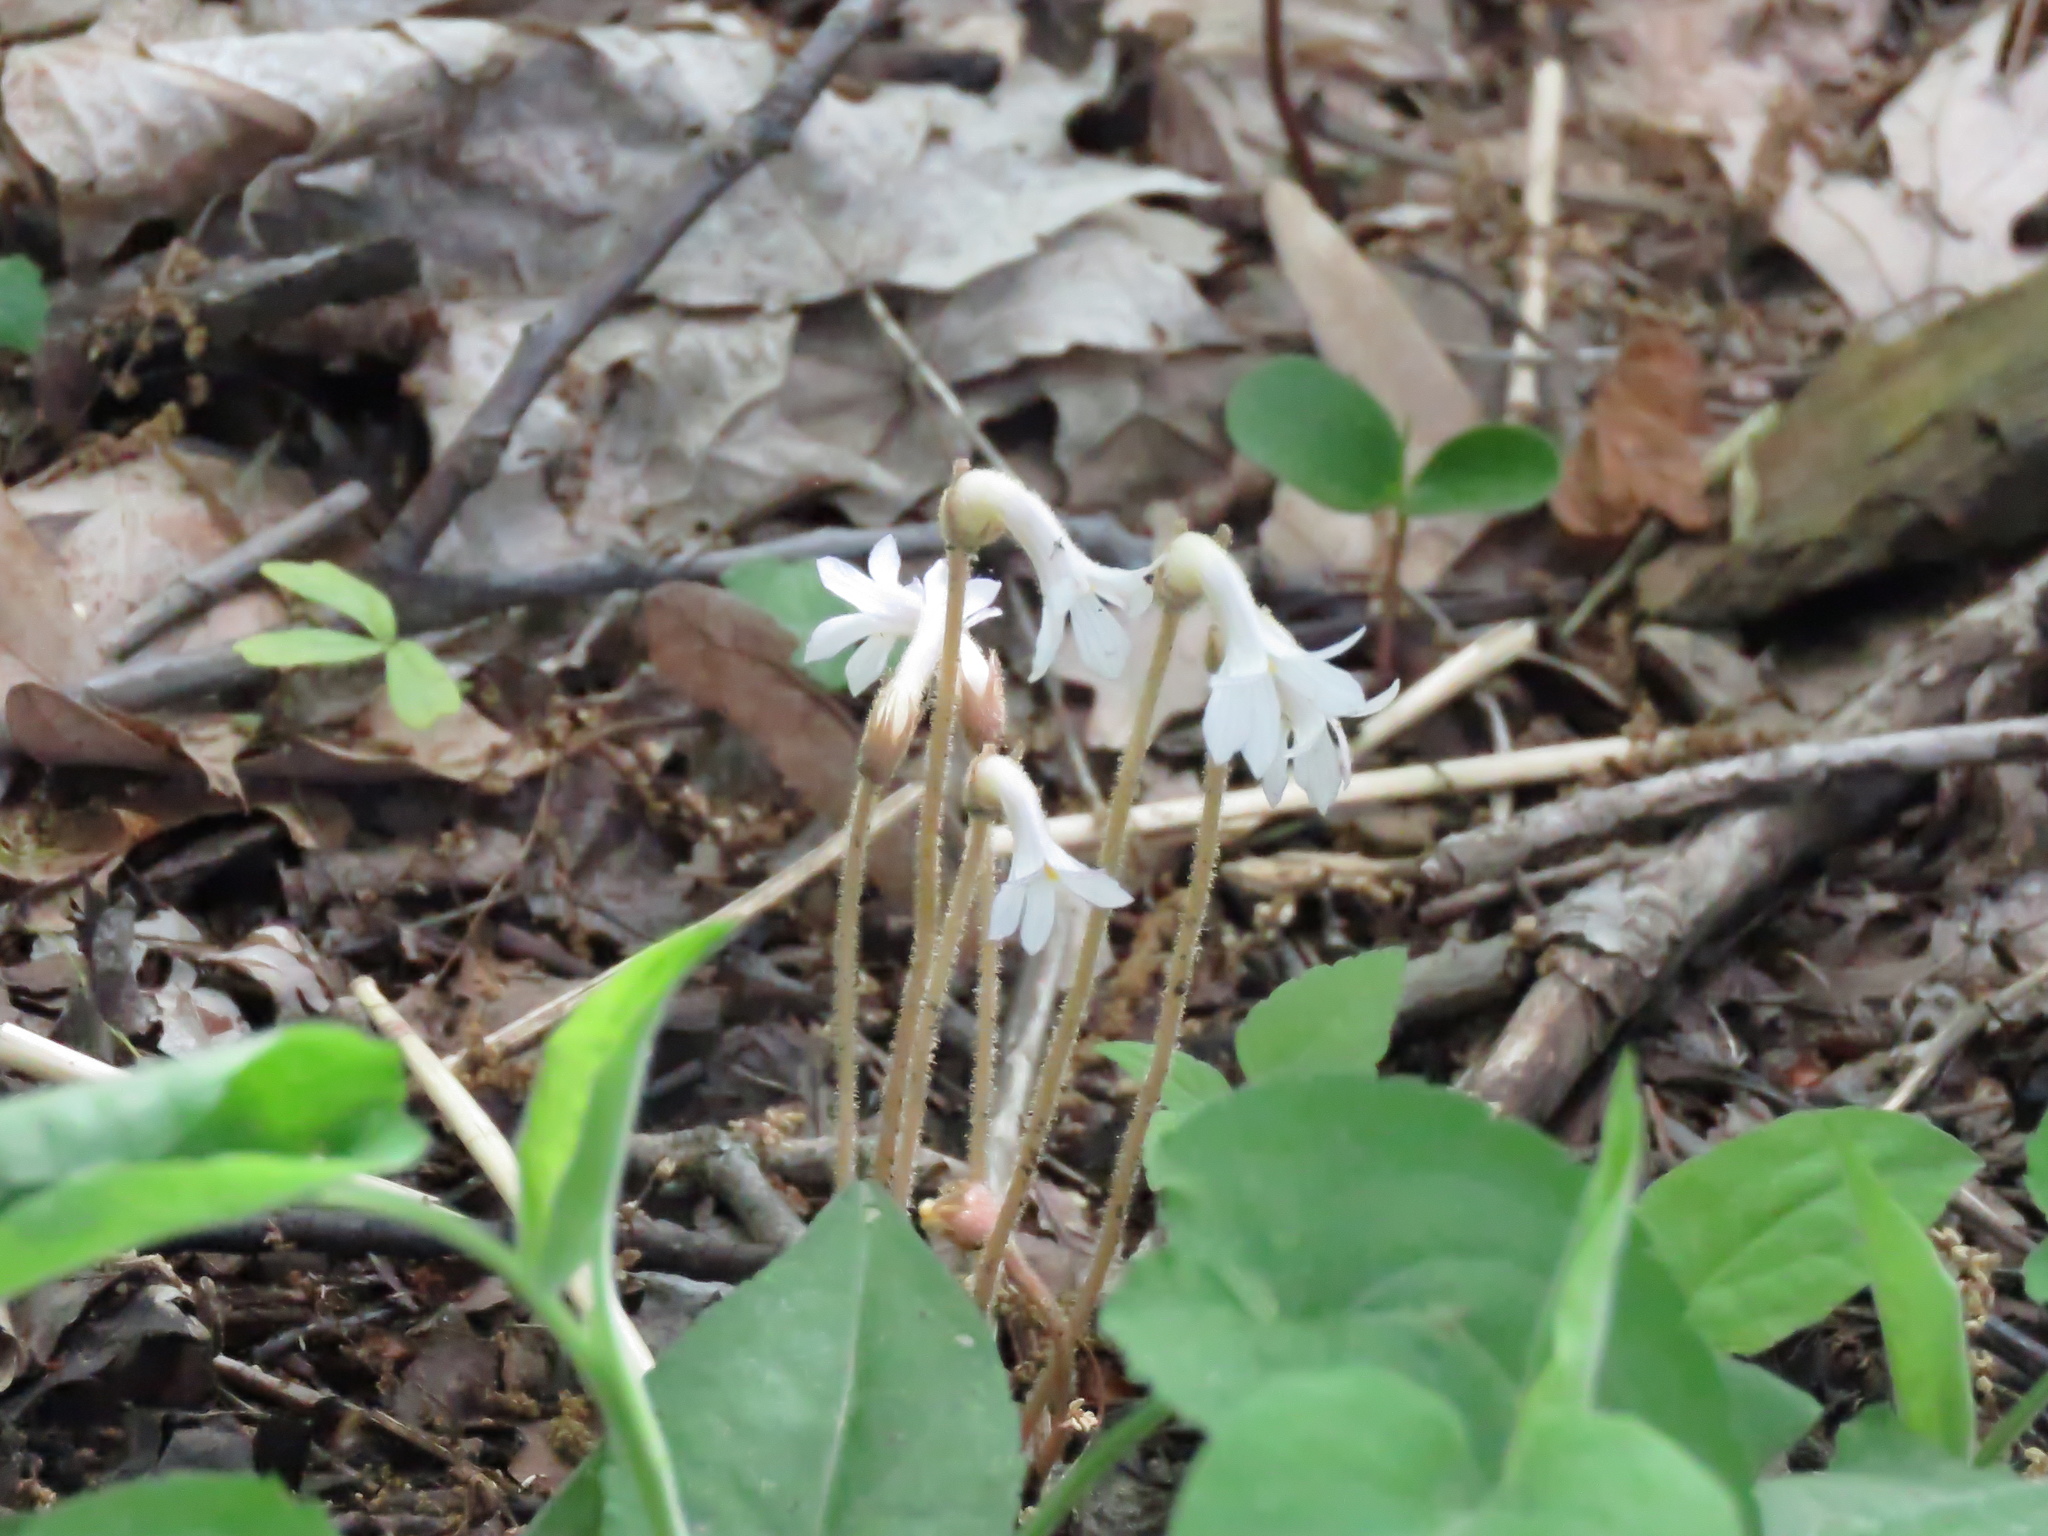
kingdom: Plantae
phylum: Tracheophyta
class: Magnoliopsida
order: Lamiales
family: Orobanchaceae
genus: Aphyllon
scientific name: Aphyllon uniflorum
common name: One-flowered broomrape
